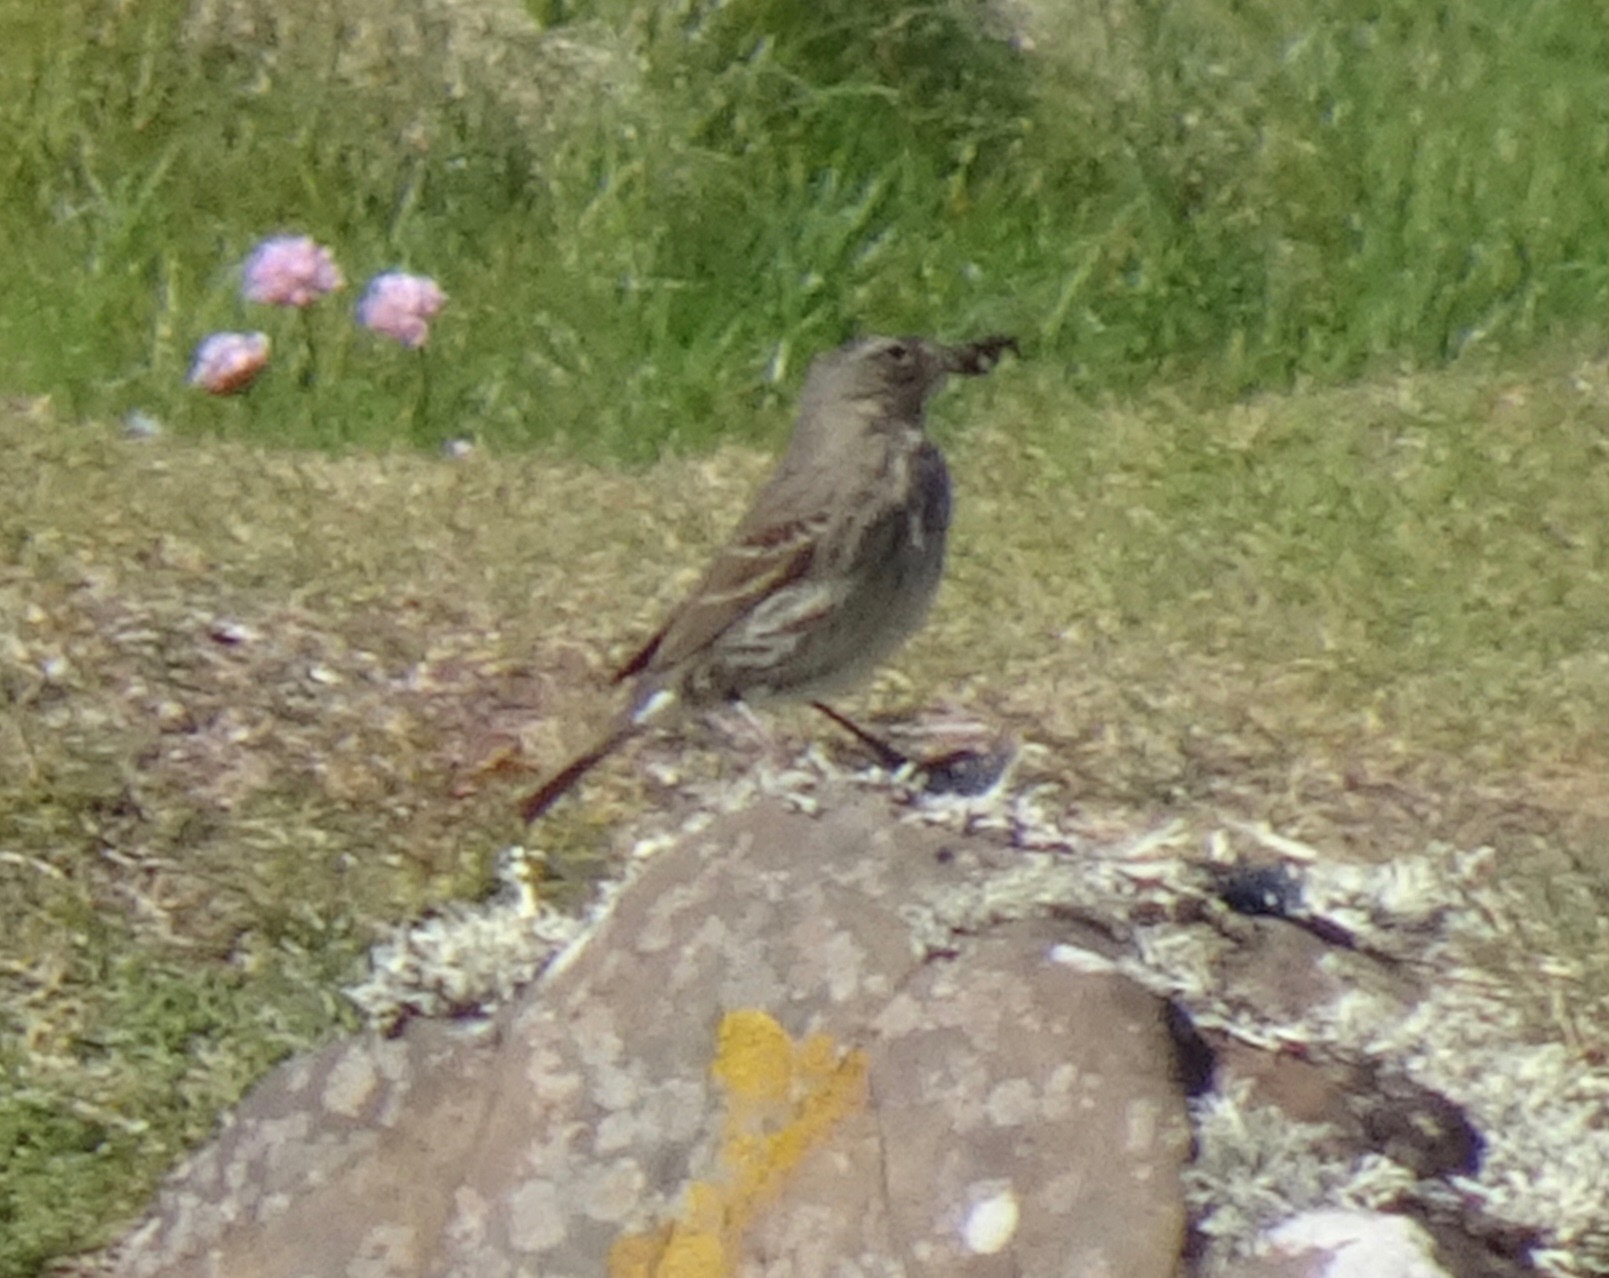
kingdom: Animalia
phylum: Chordata
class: Aves
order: Passeriformes
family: Motacillidae
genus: Anthus
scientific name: Anthus petrosus
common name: Eurasian rock pipit
